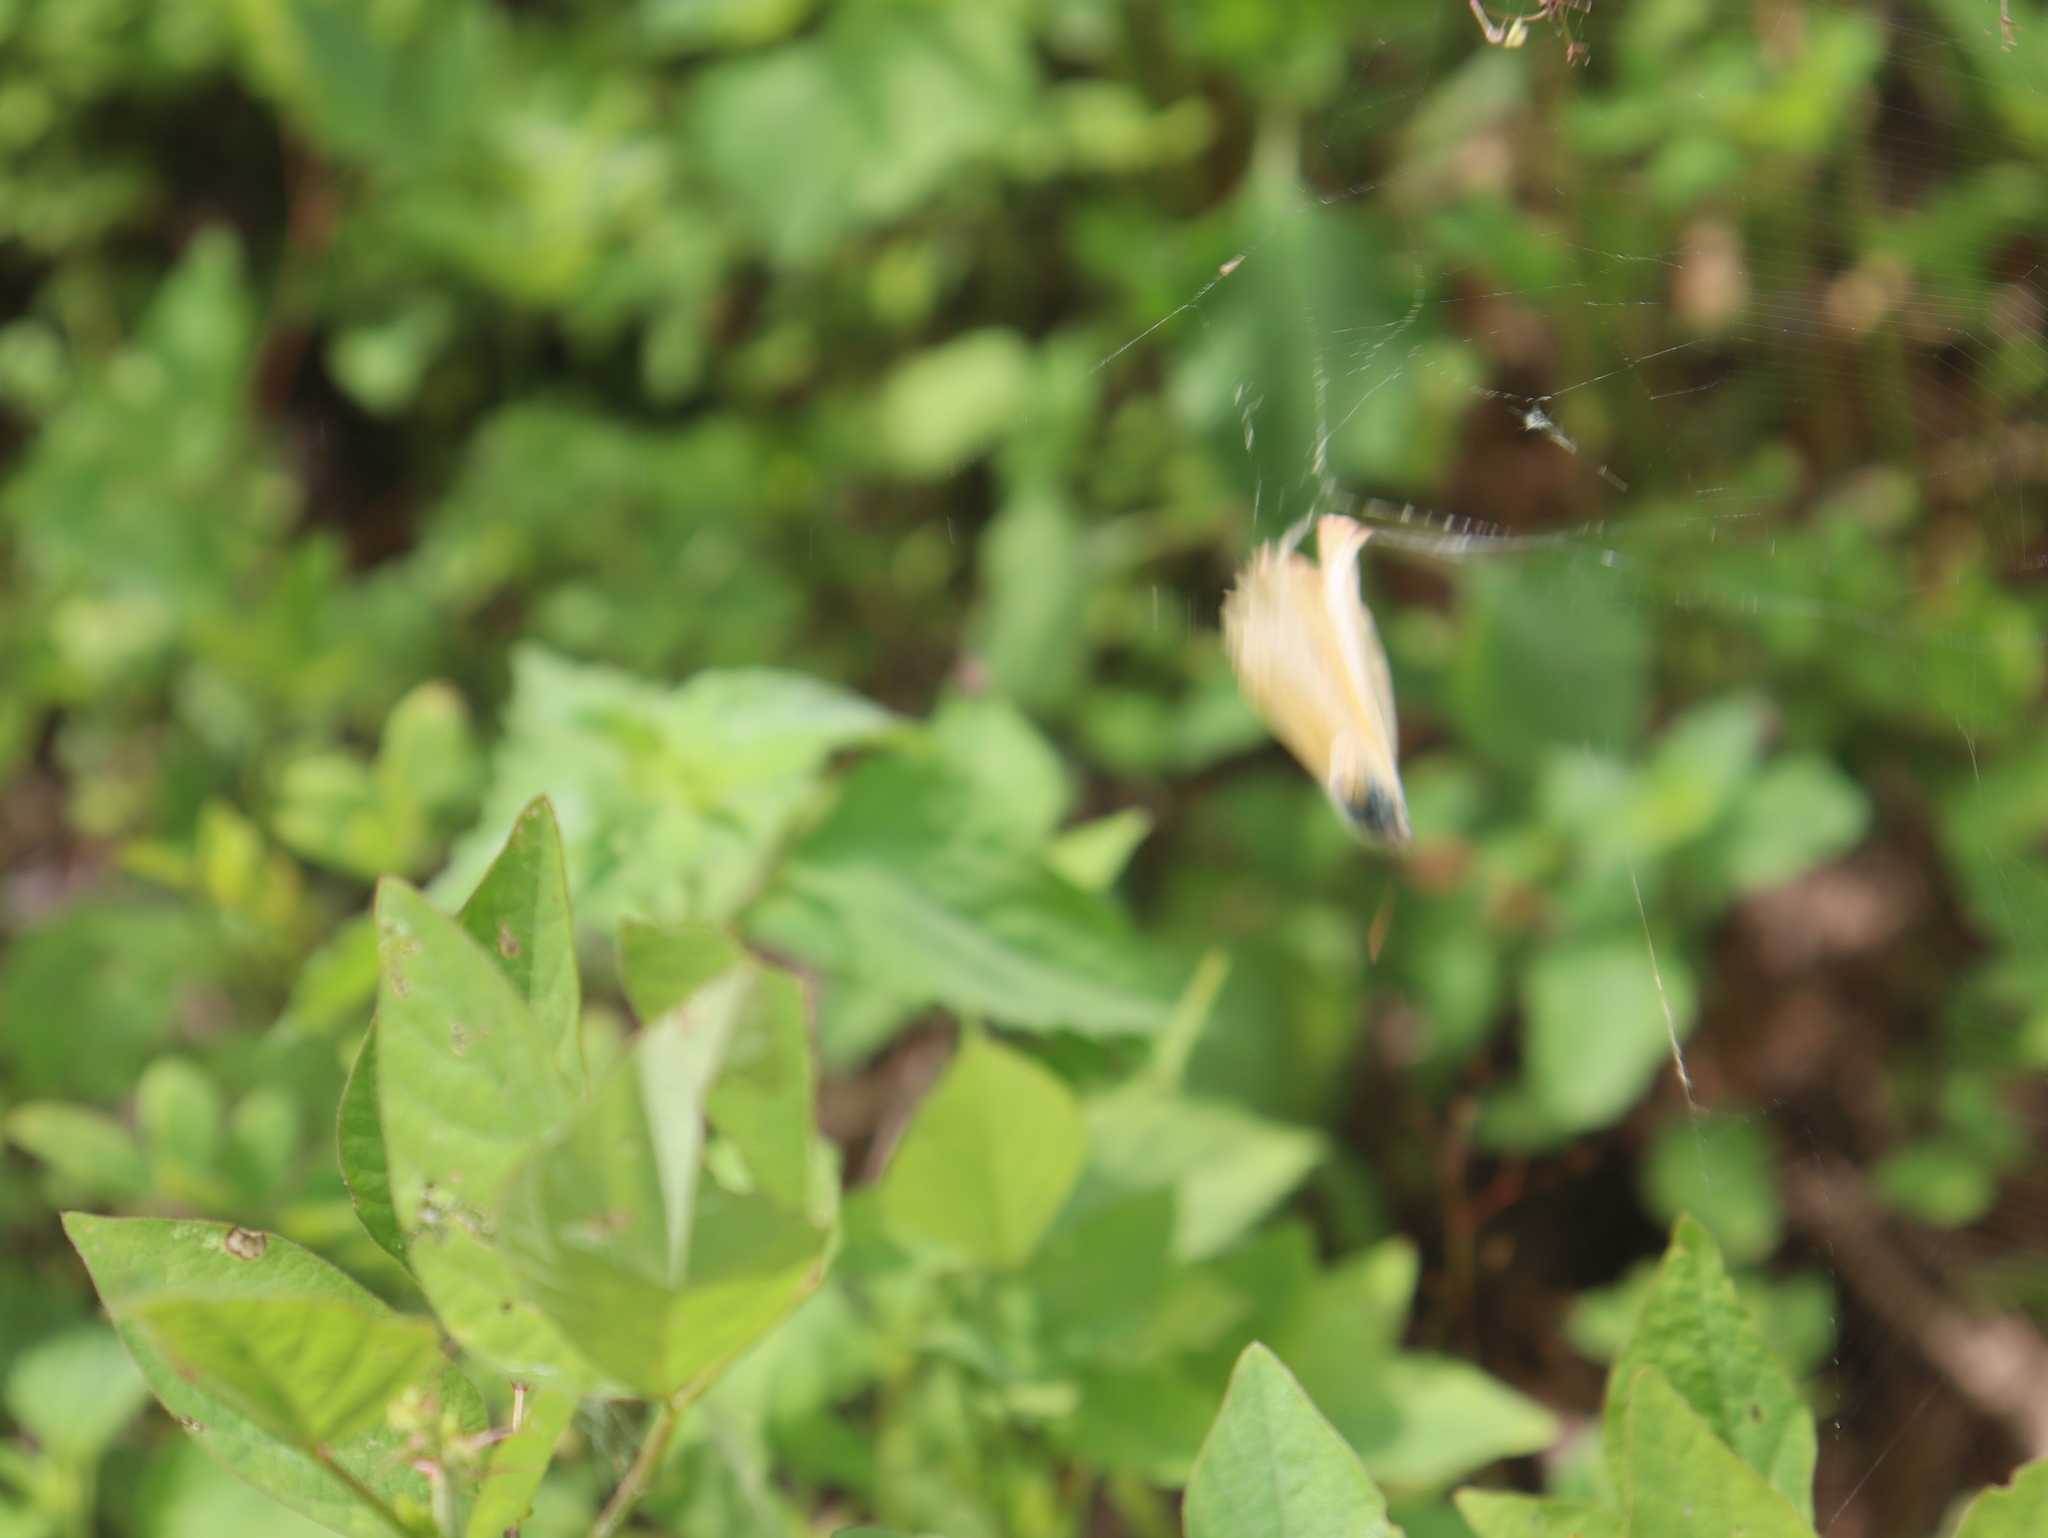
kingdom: Animalia
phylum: Arthropoda
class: Insecta
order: Lepidoptera
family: Pieridae
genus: Phoebis
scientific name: Phoebis marcellina
